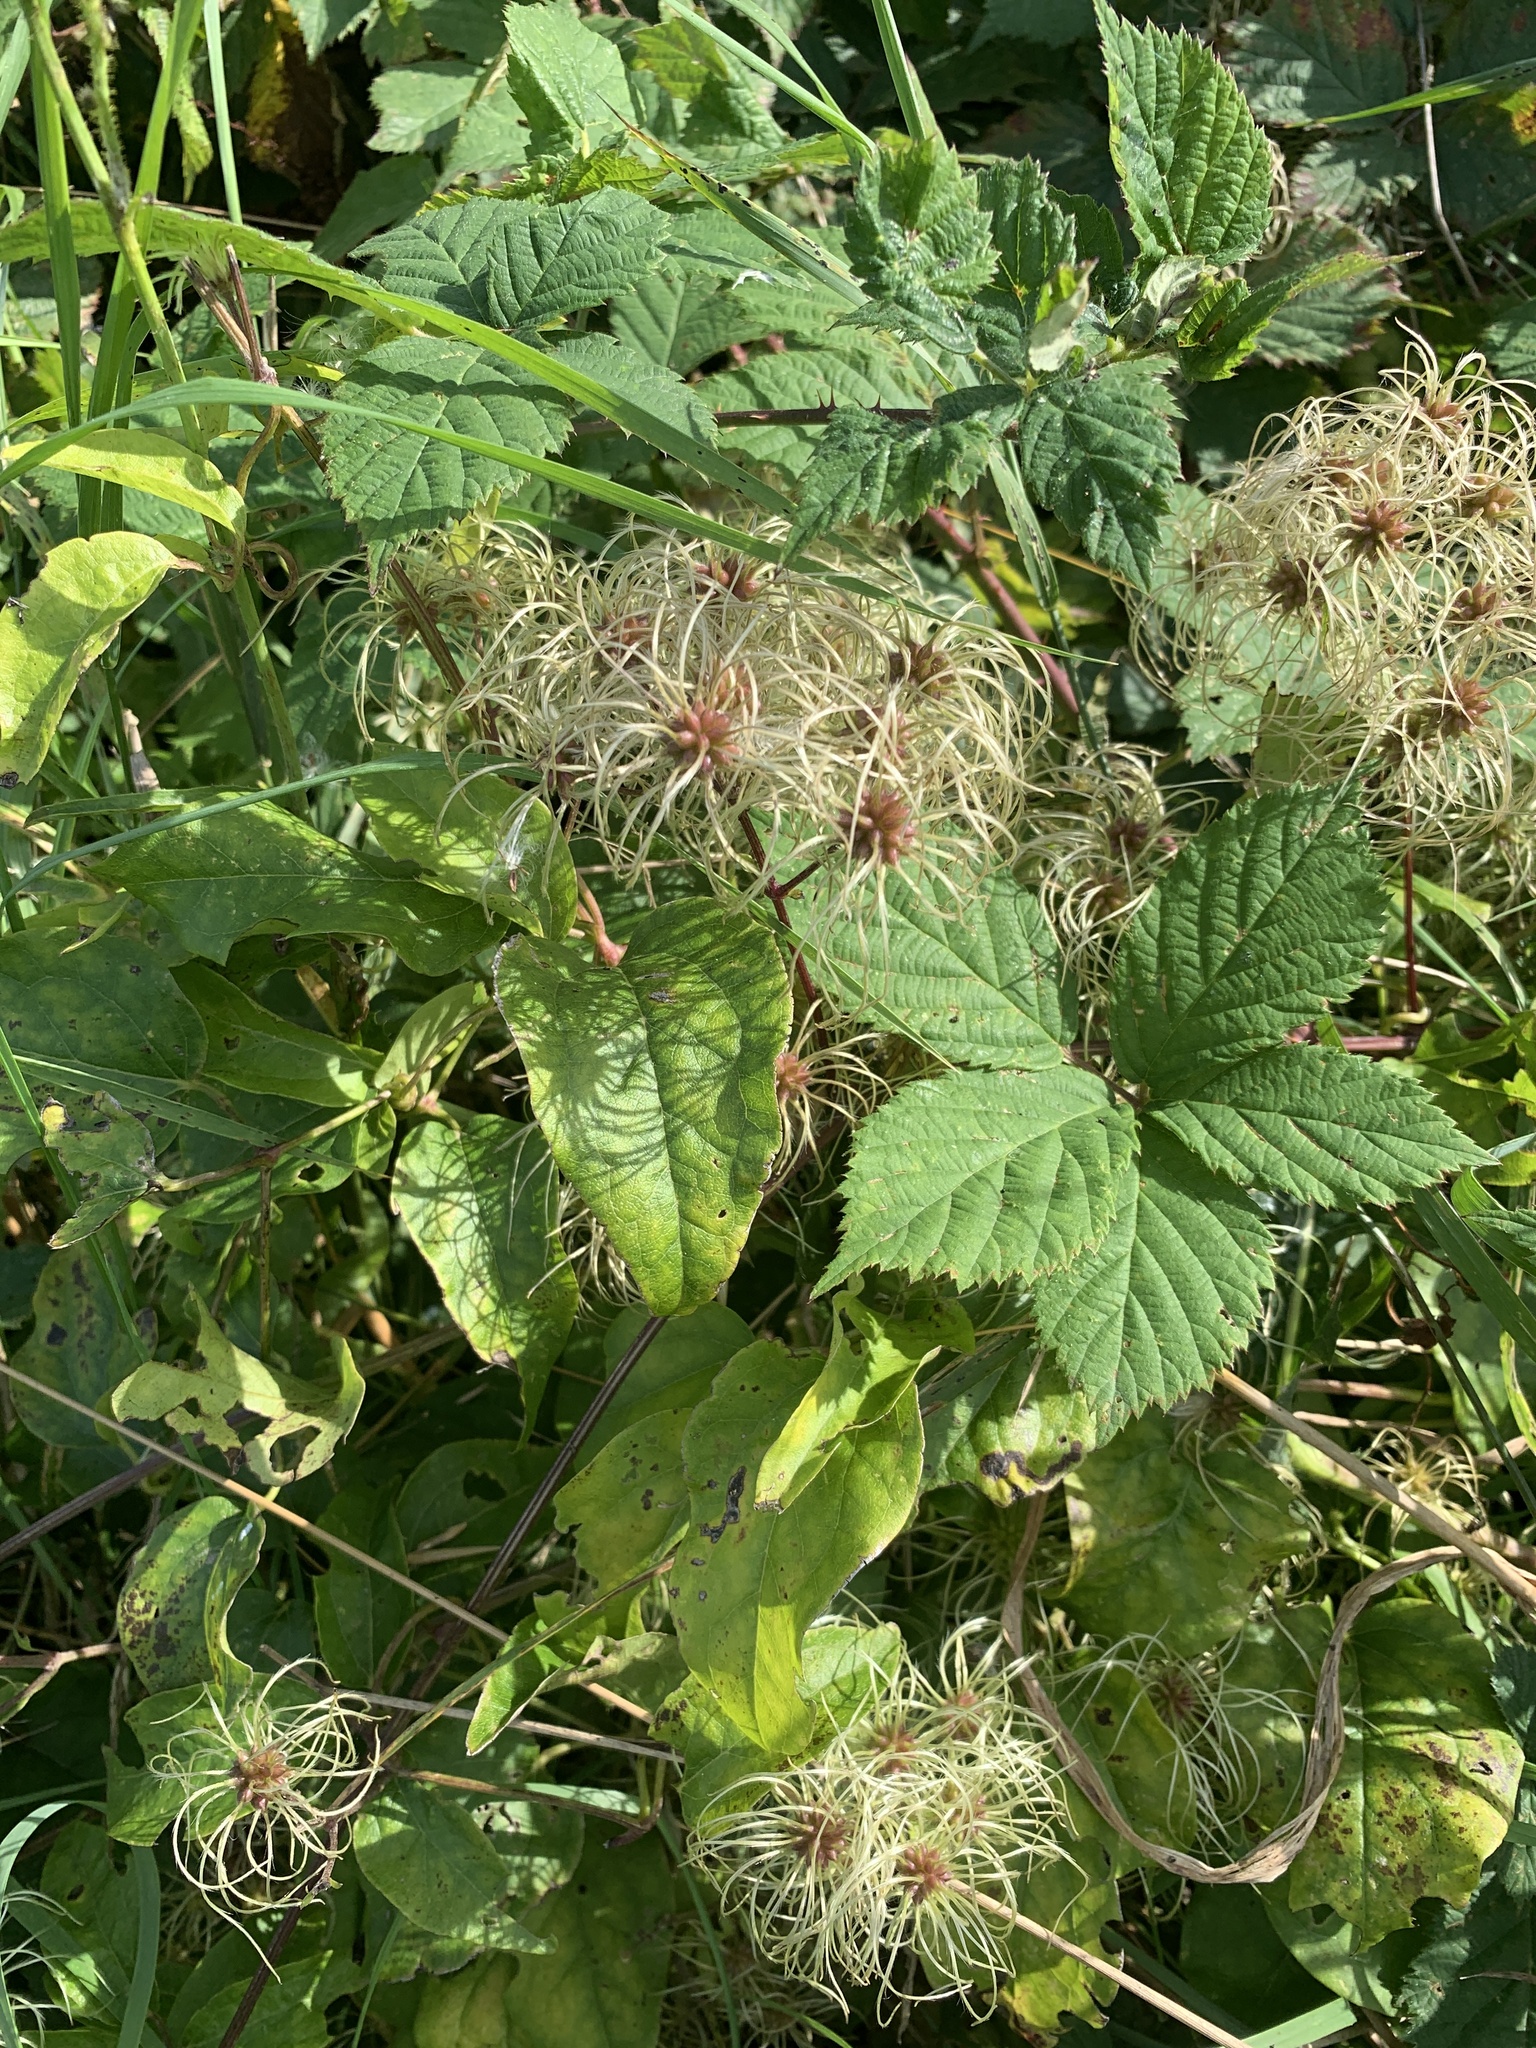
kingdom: Plantae
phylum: Tracheophyta
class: Magnoliopsida
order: Ranunculales
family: Ranunculaceae
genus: Clematis
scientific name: Clematis vitalba
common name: Evergreen clematis
